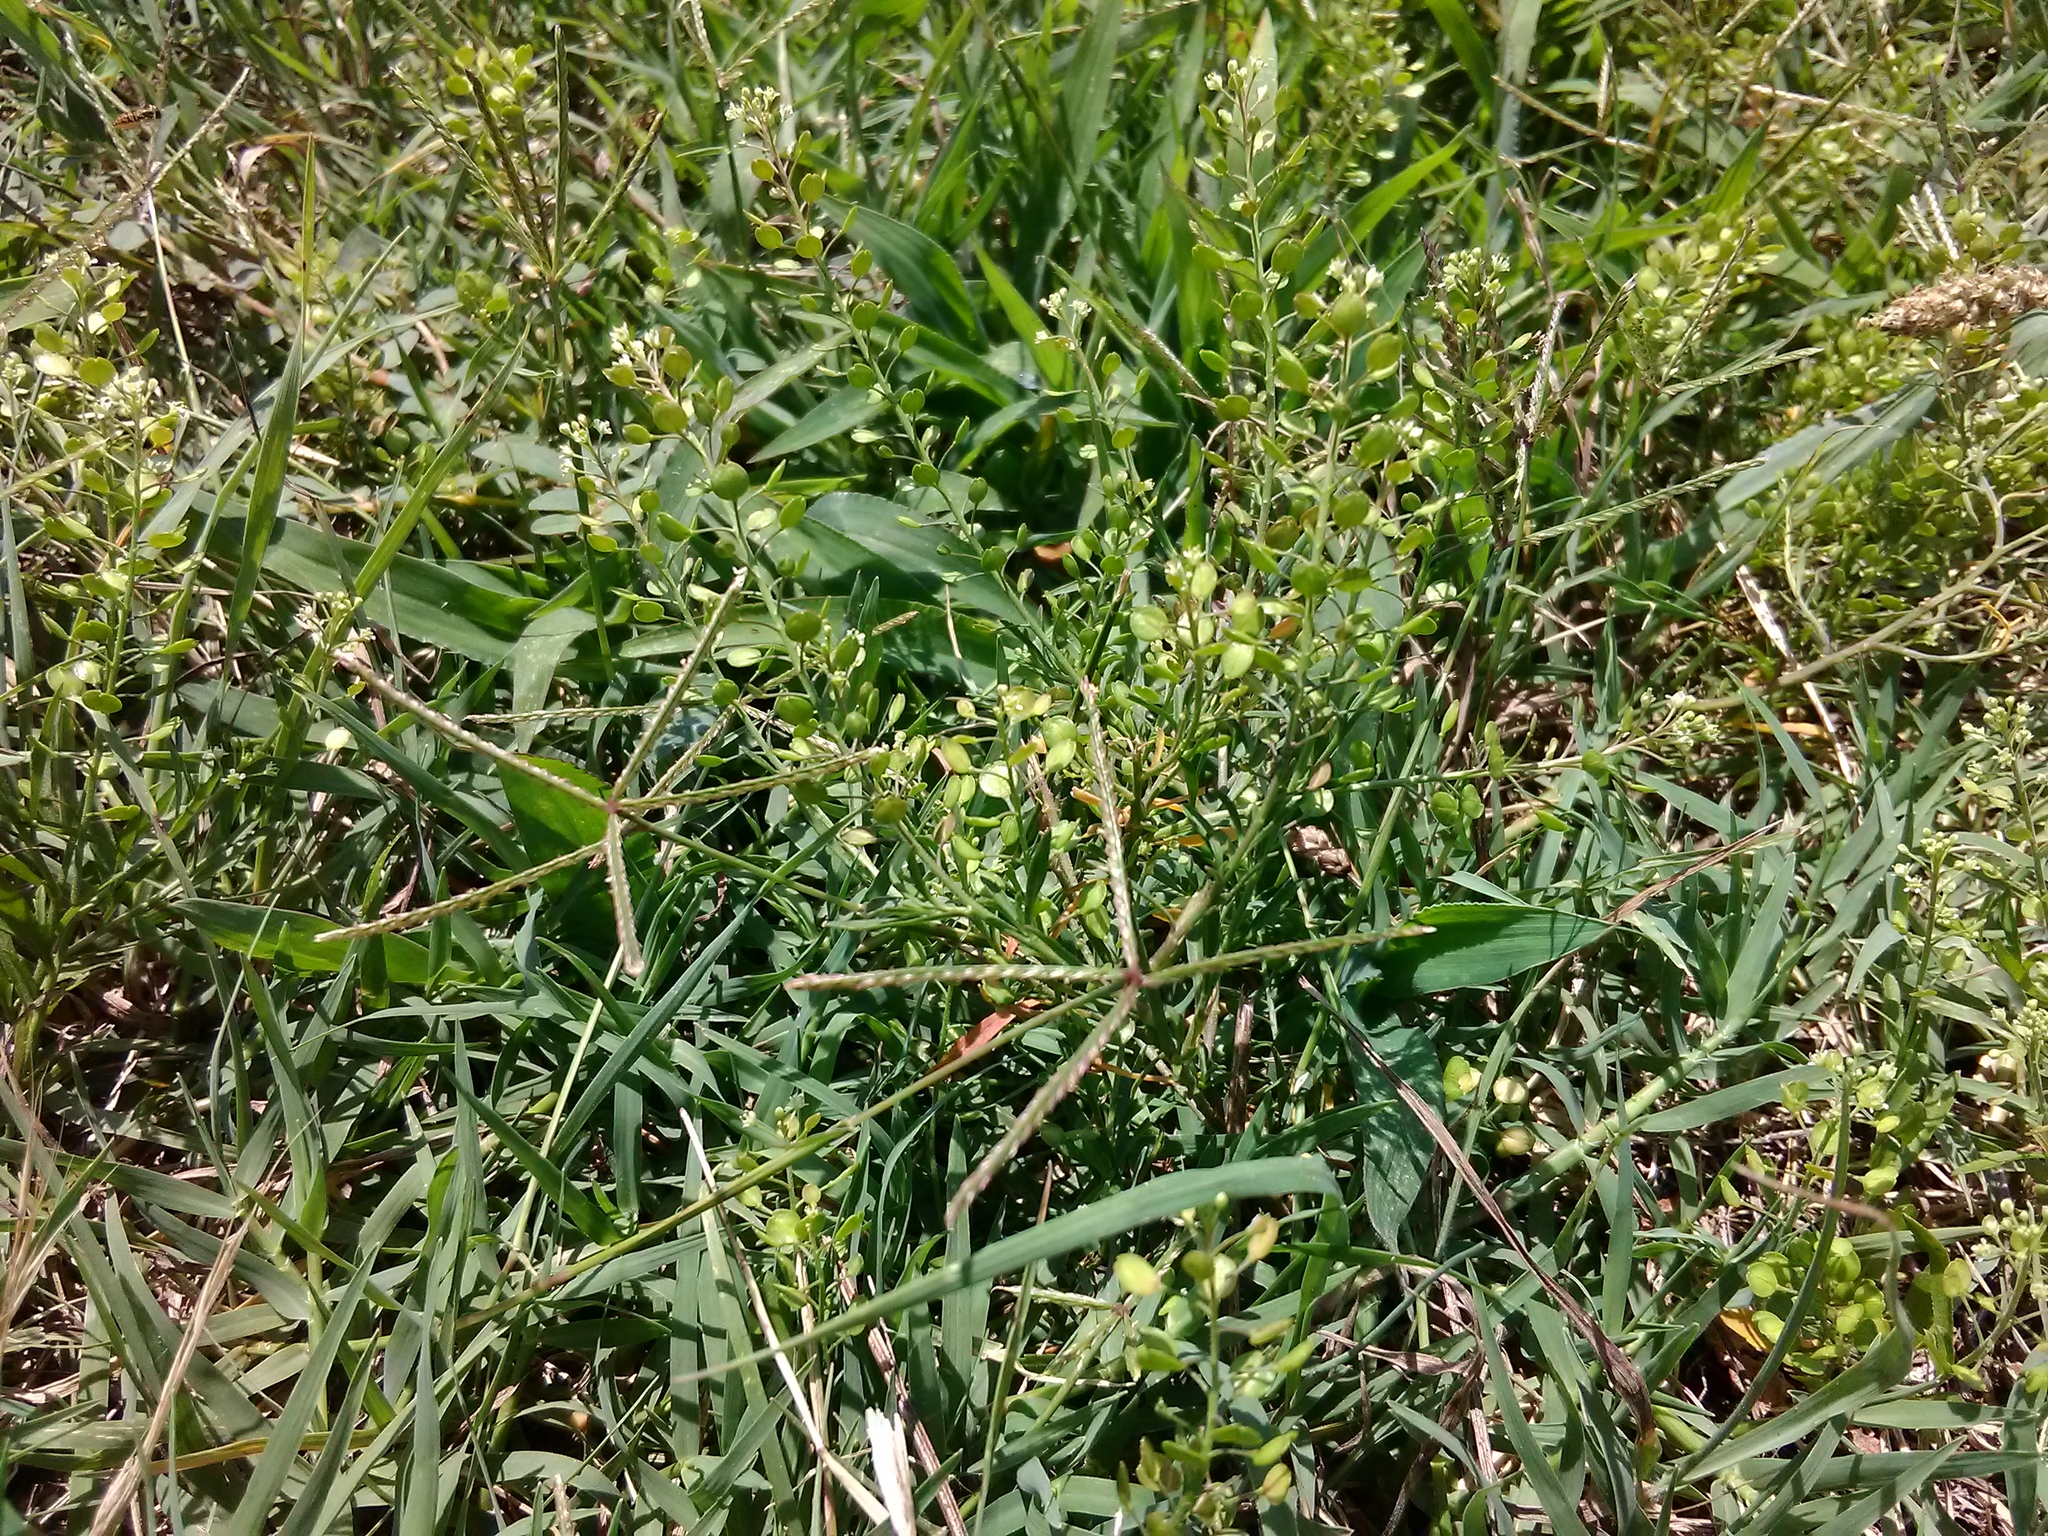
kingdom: Plantae
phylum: Tracheophyta
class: Magnoliopsida
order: Brassicales
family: Brassicaceae
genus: Lepidium
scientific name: Lepidium virginicum
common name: Least pepperwort
